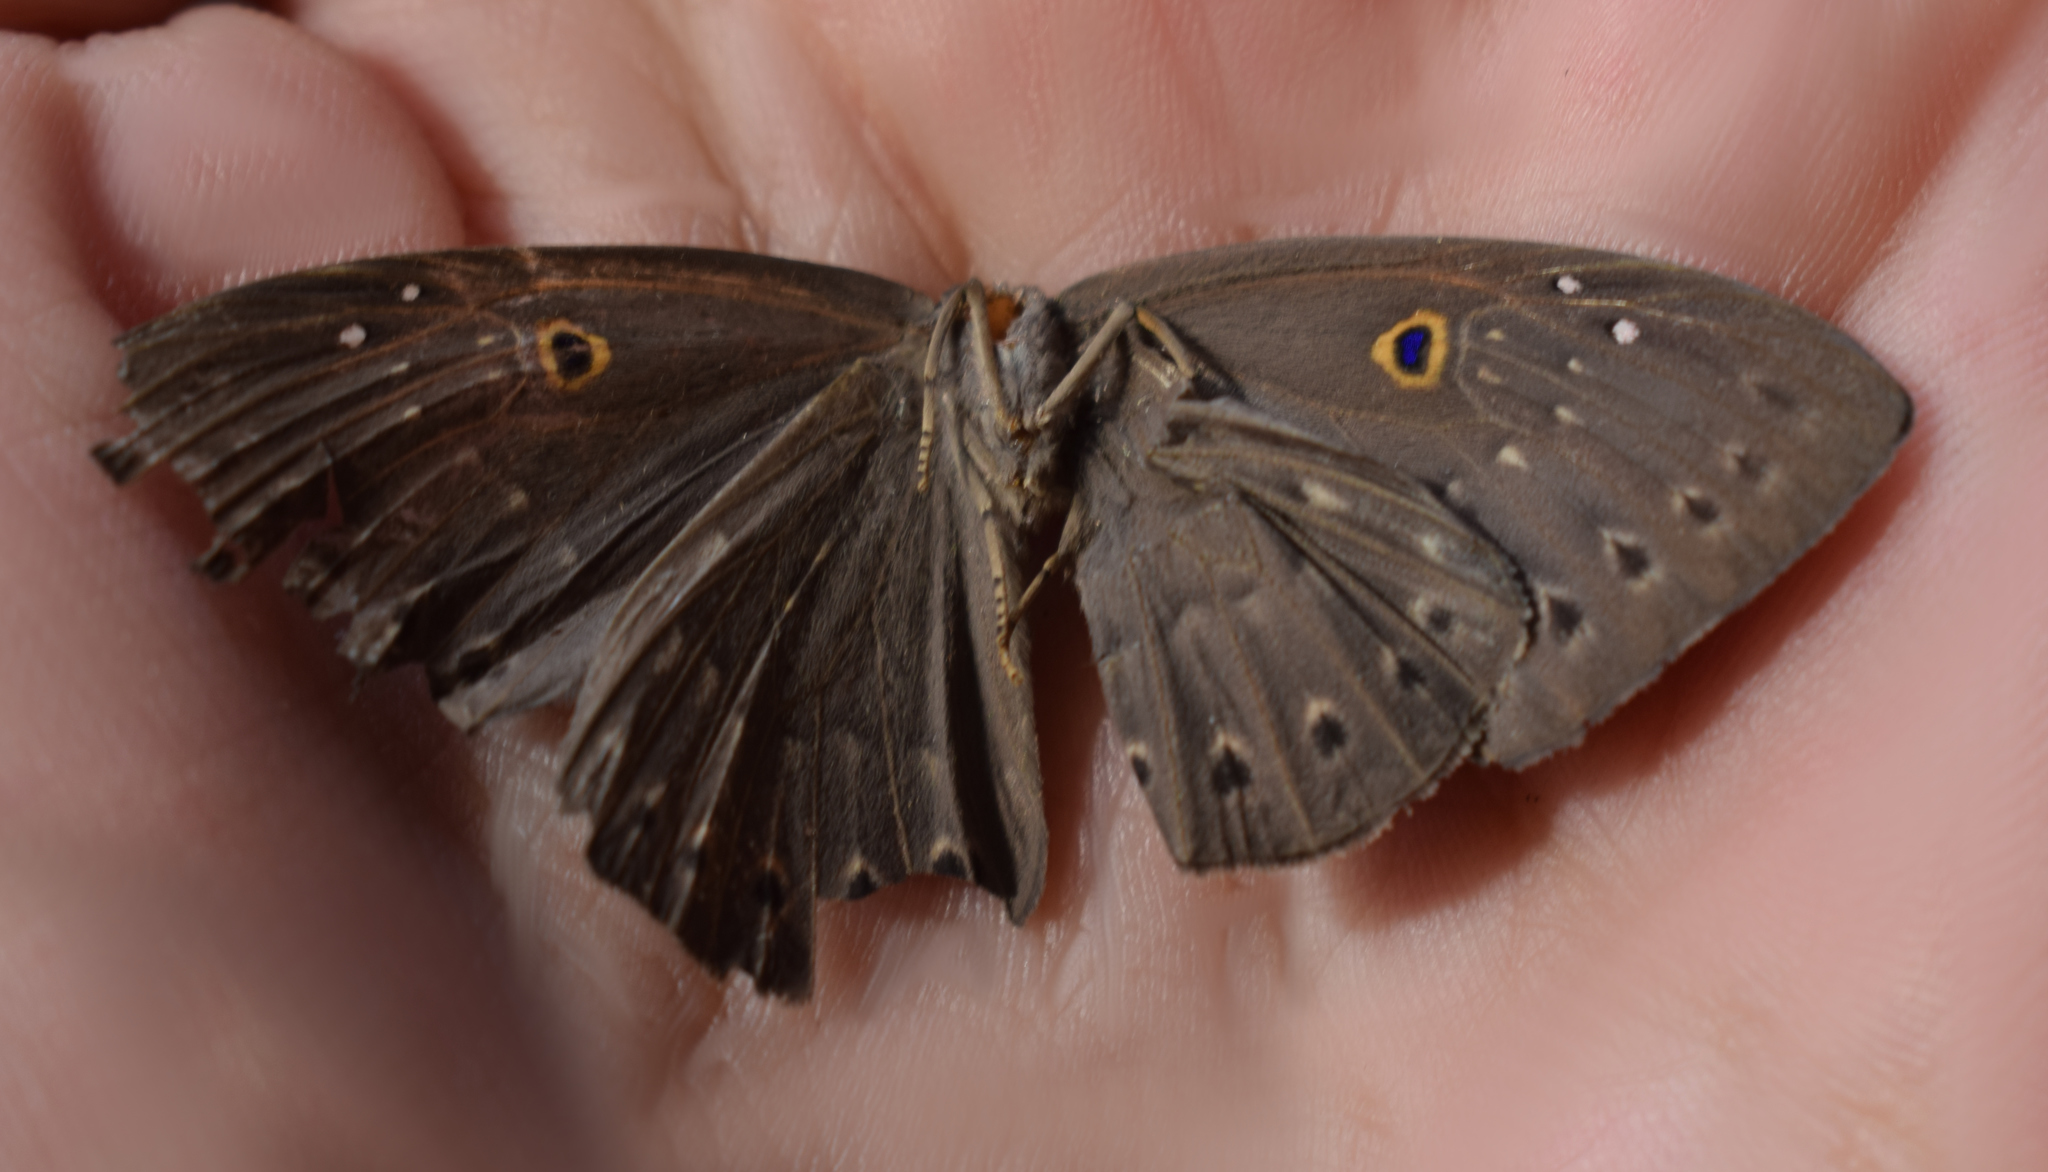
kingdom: Animalia
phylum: Cnidaria
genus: Eurybia
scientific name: Eurybia molochina
